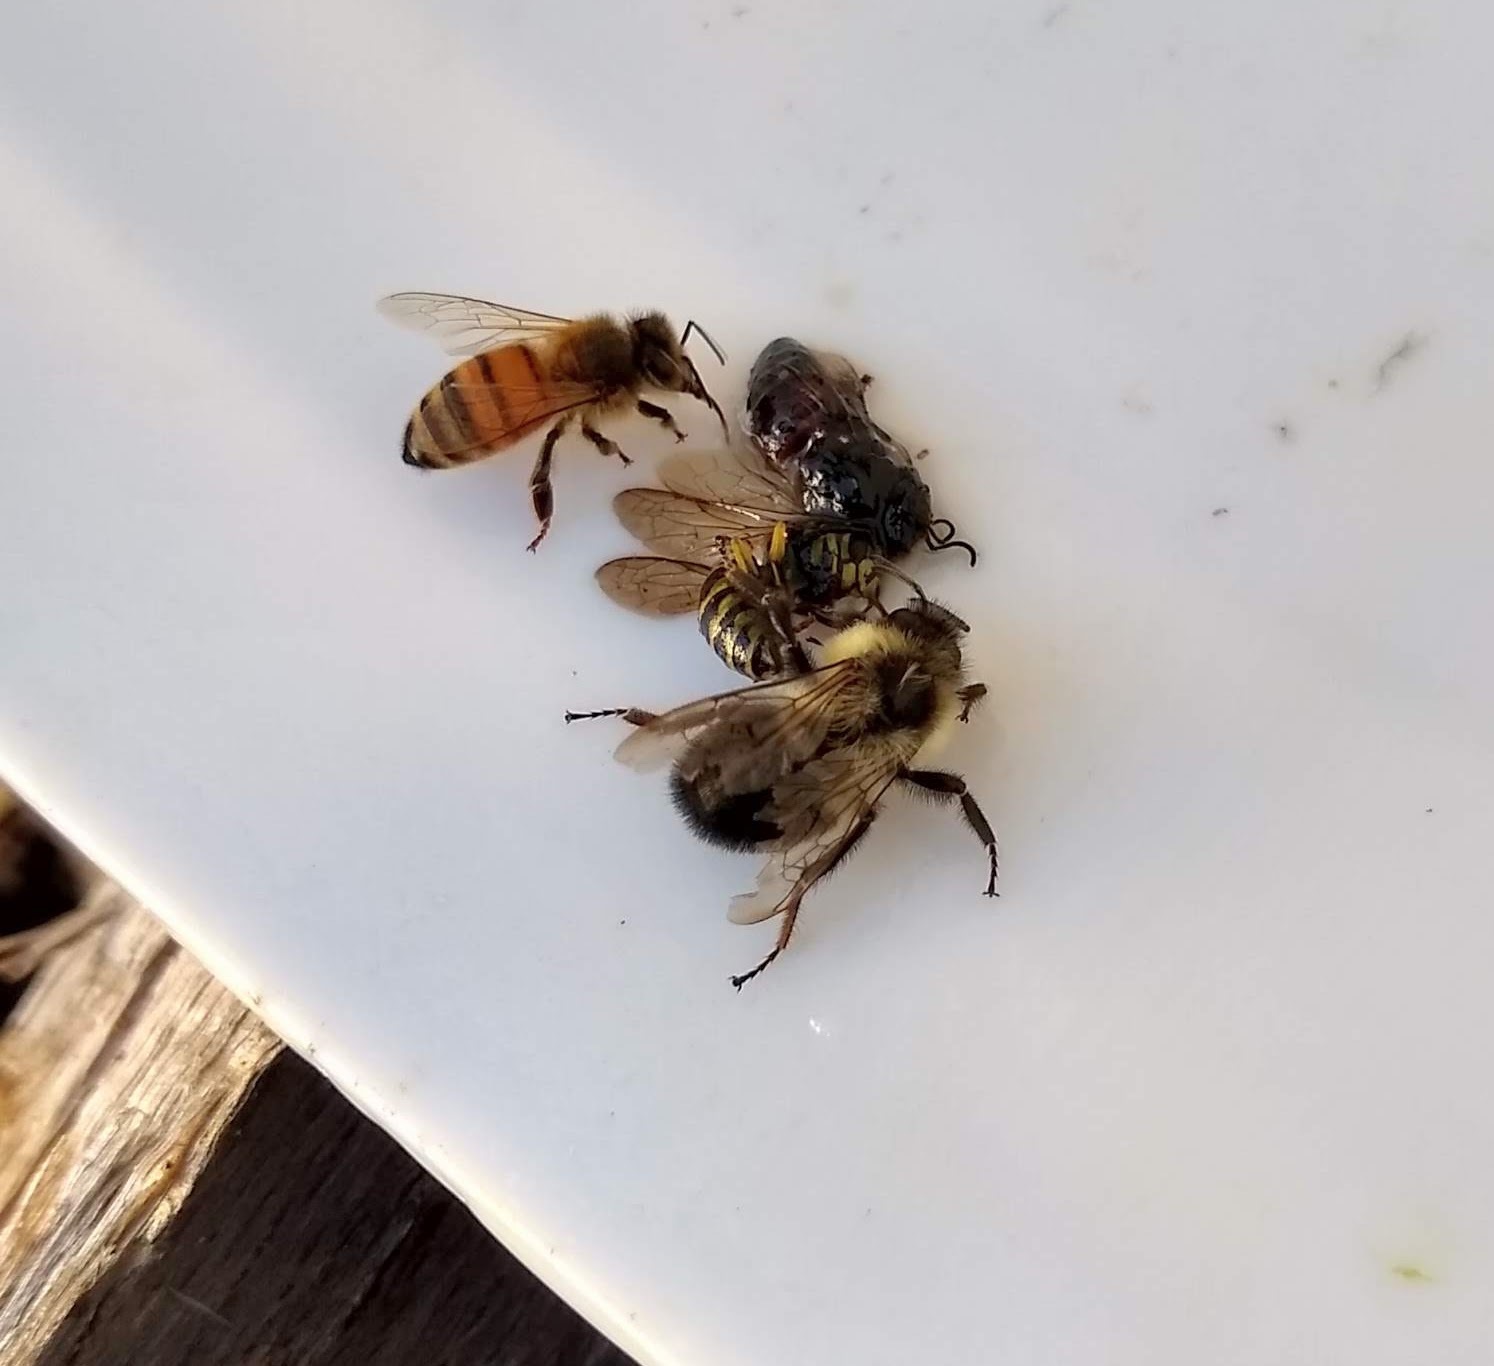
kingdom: Animalia
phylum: Arthropoda
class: Insecta
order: Hymenoptera
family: Apidae
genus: Bombus
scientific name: Bombus impatiens
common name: Common eastern bumble bee
